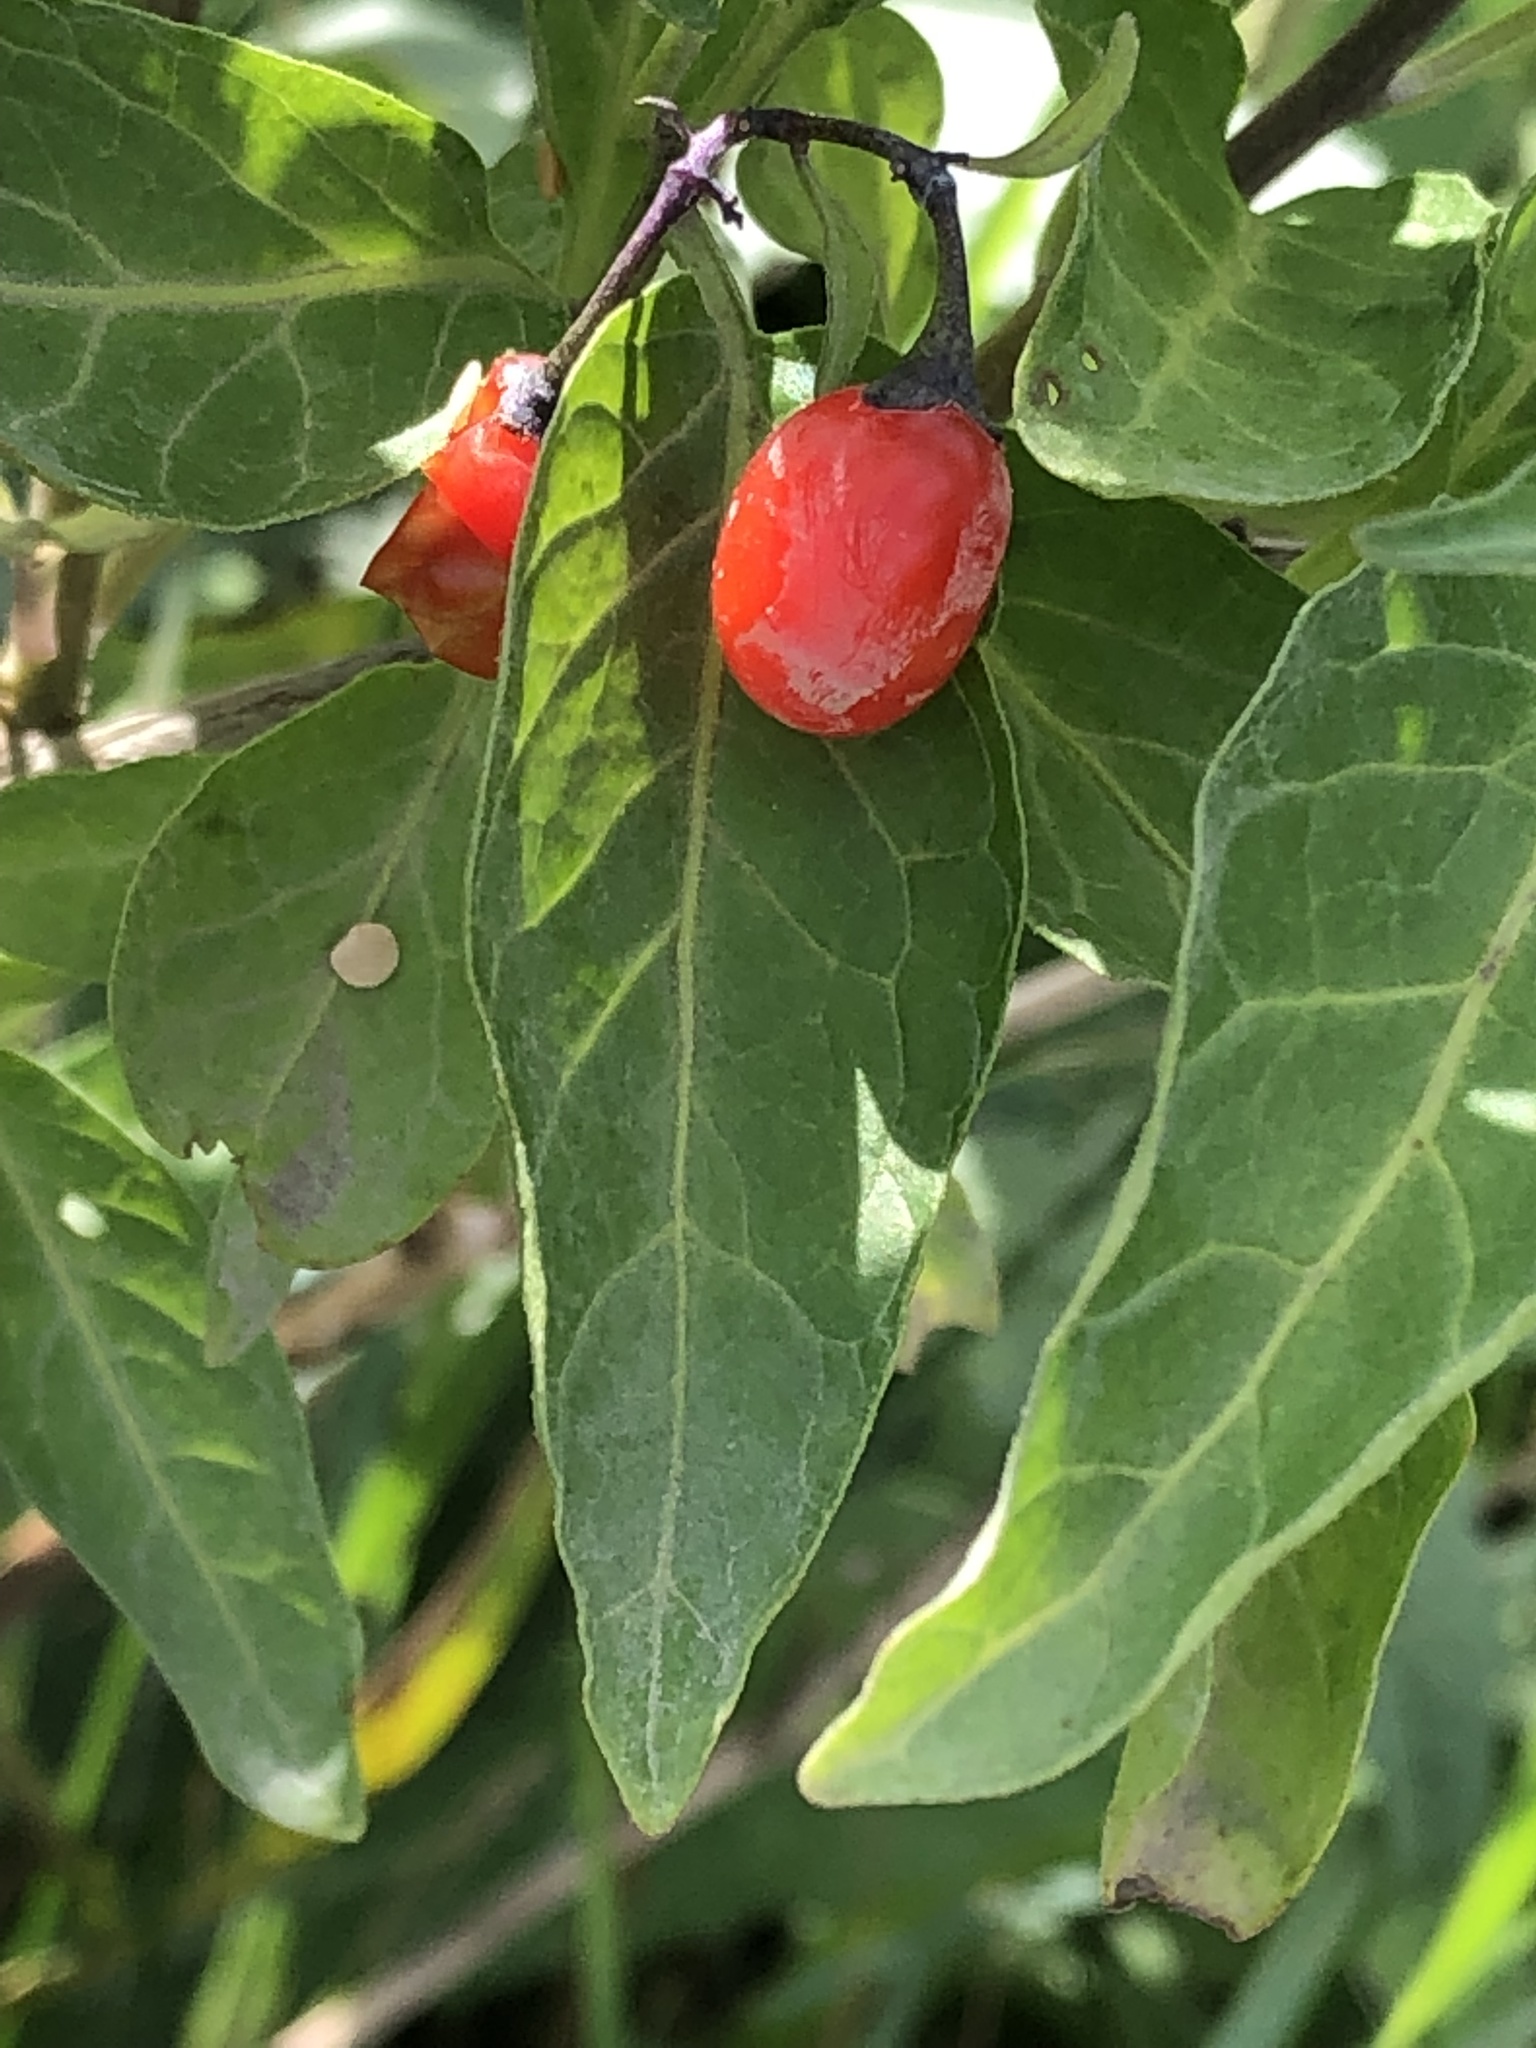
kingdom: Plantae
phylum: Tracheophyta
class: Magnoliopsida
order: Solanales
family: Solanaceae
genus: Solanum
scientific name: Solanum dulcamara
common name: Climbing nightshade
